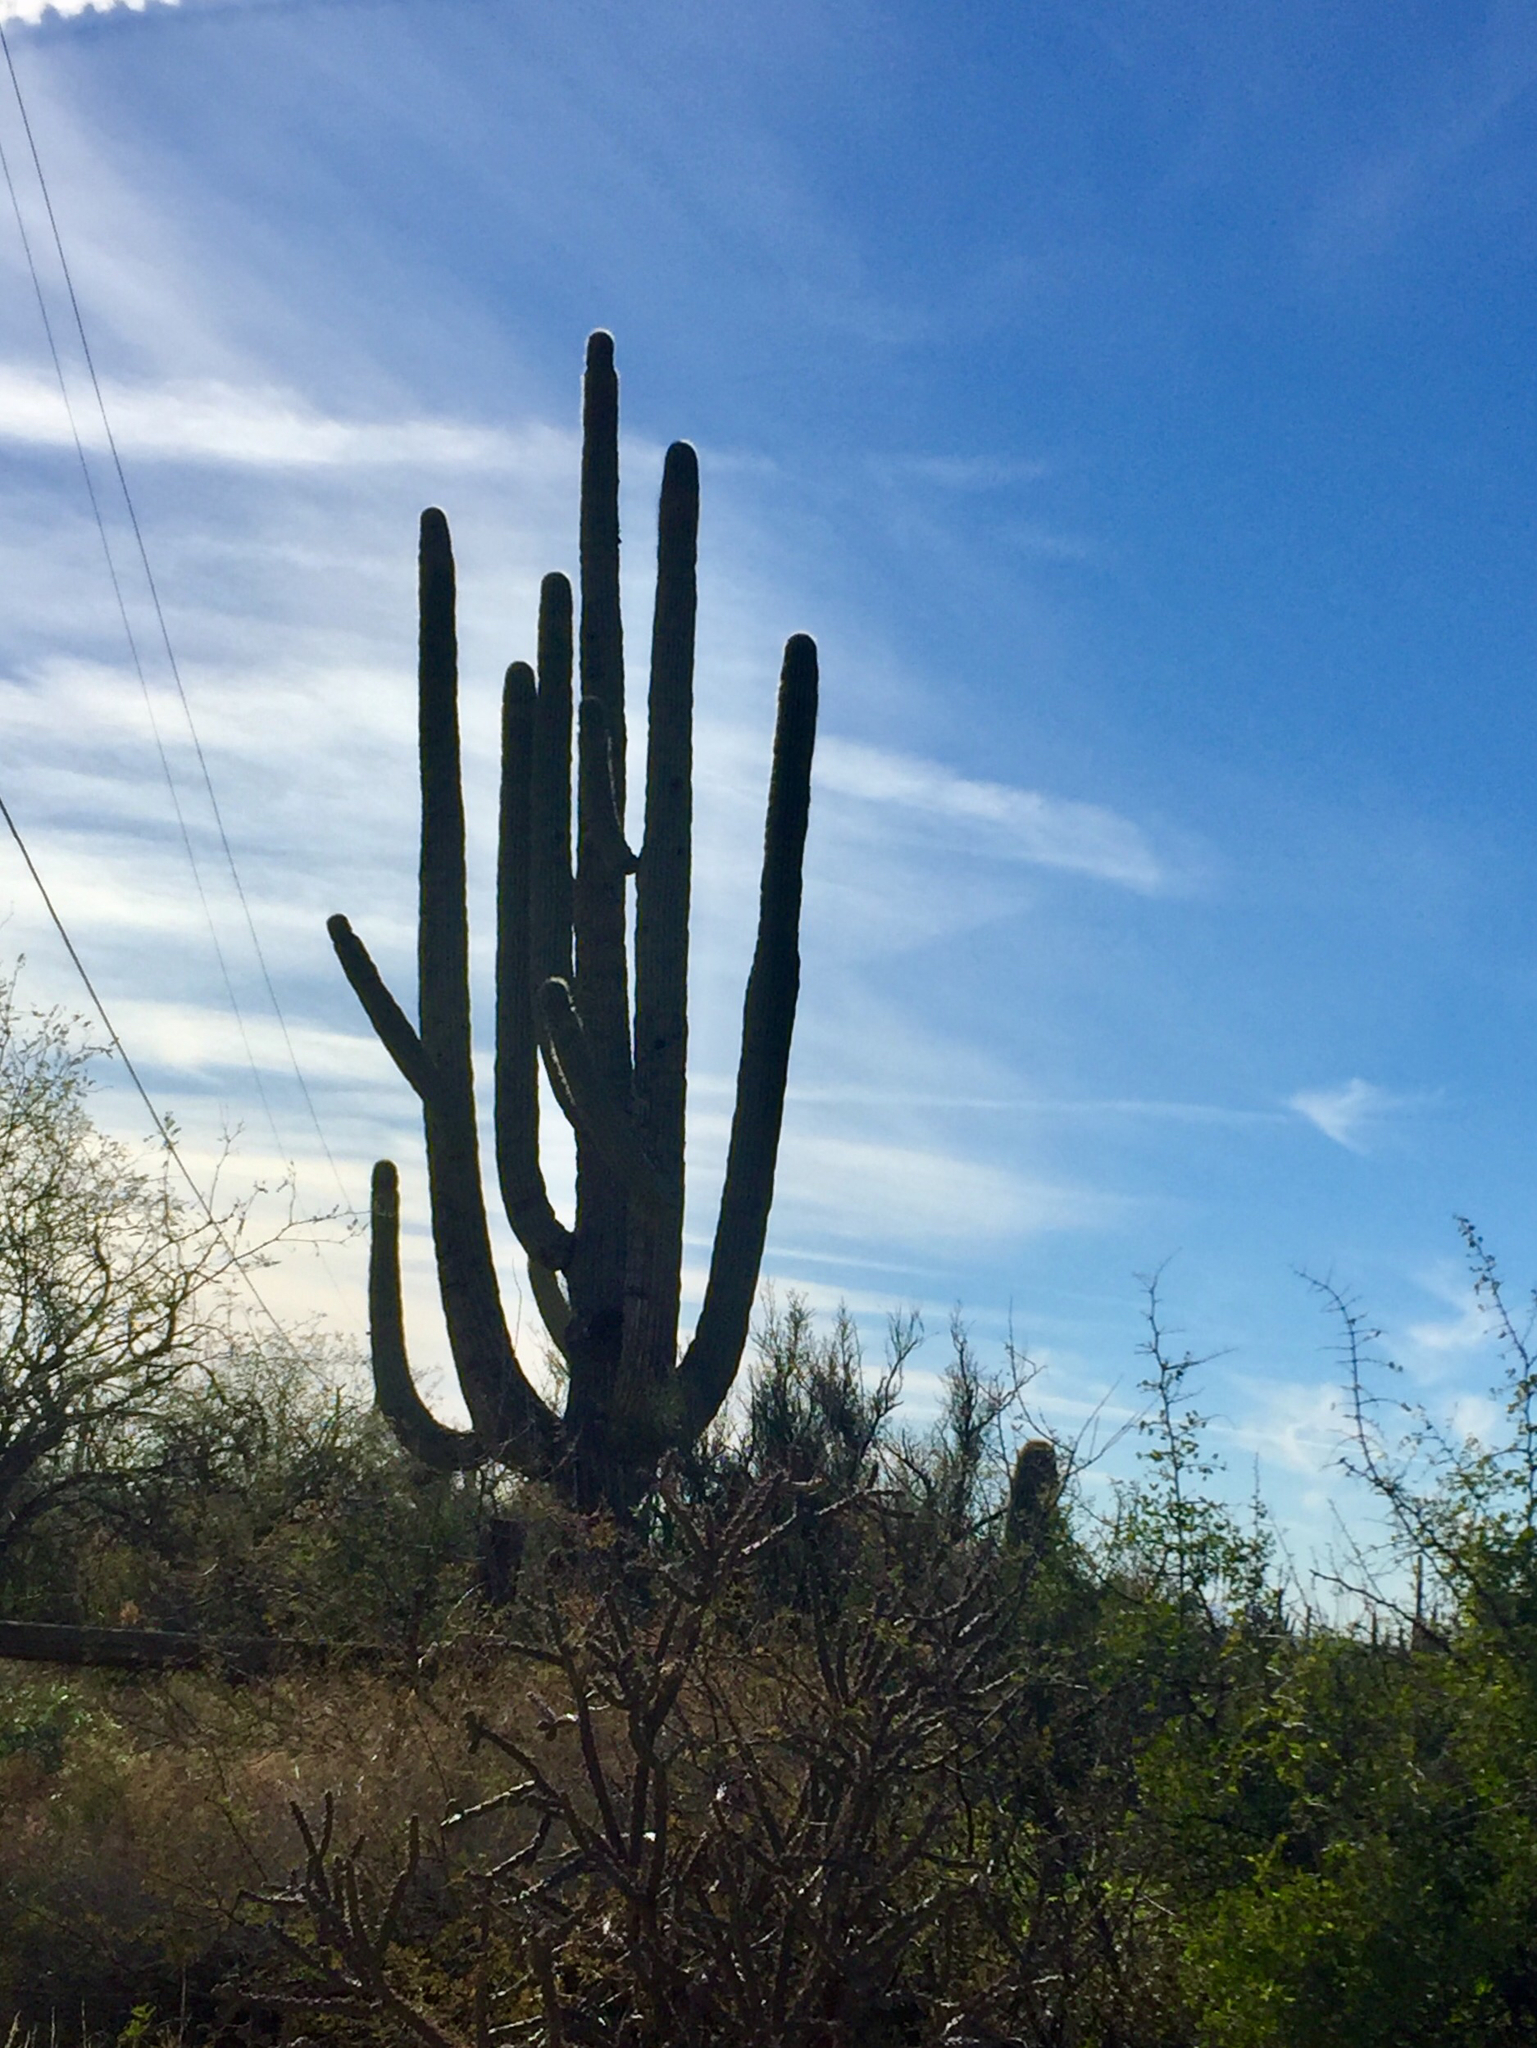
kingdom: Plantae
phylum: Tracheophyta
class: Magnoliopsida
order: Caryophyllales
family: Cactaceae
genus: Carnegiea
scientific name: Carnegiea gigantea
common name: Saguaro
